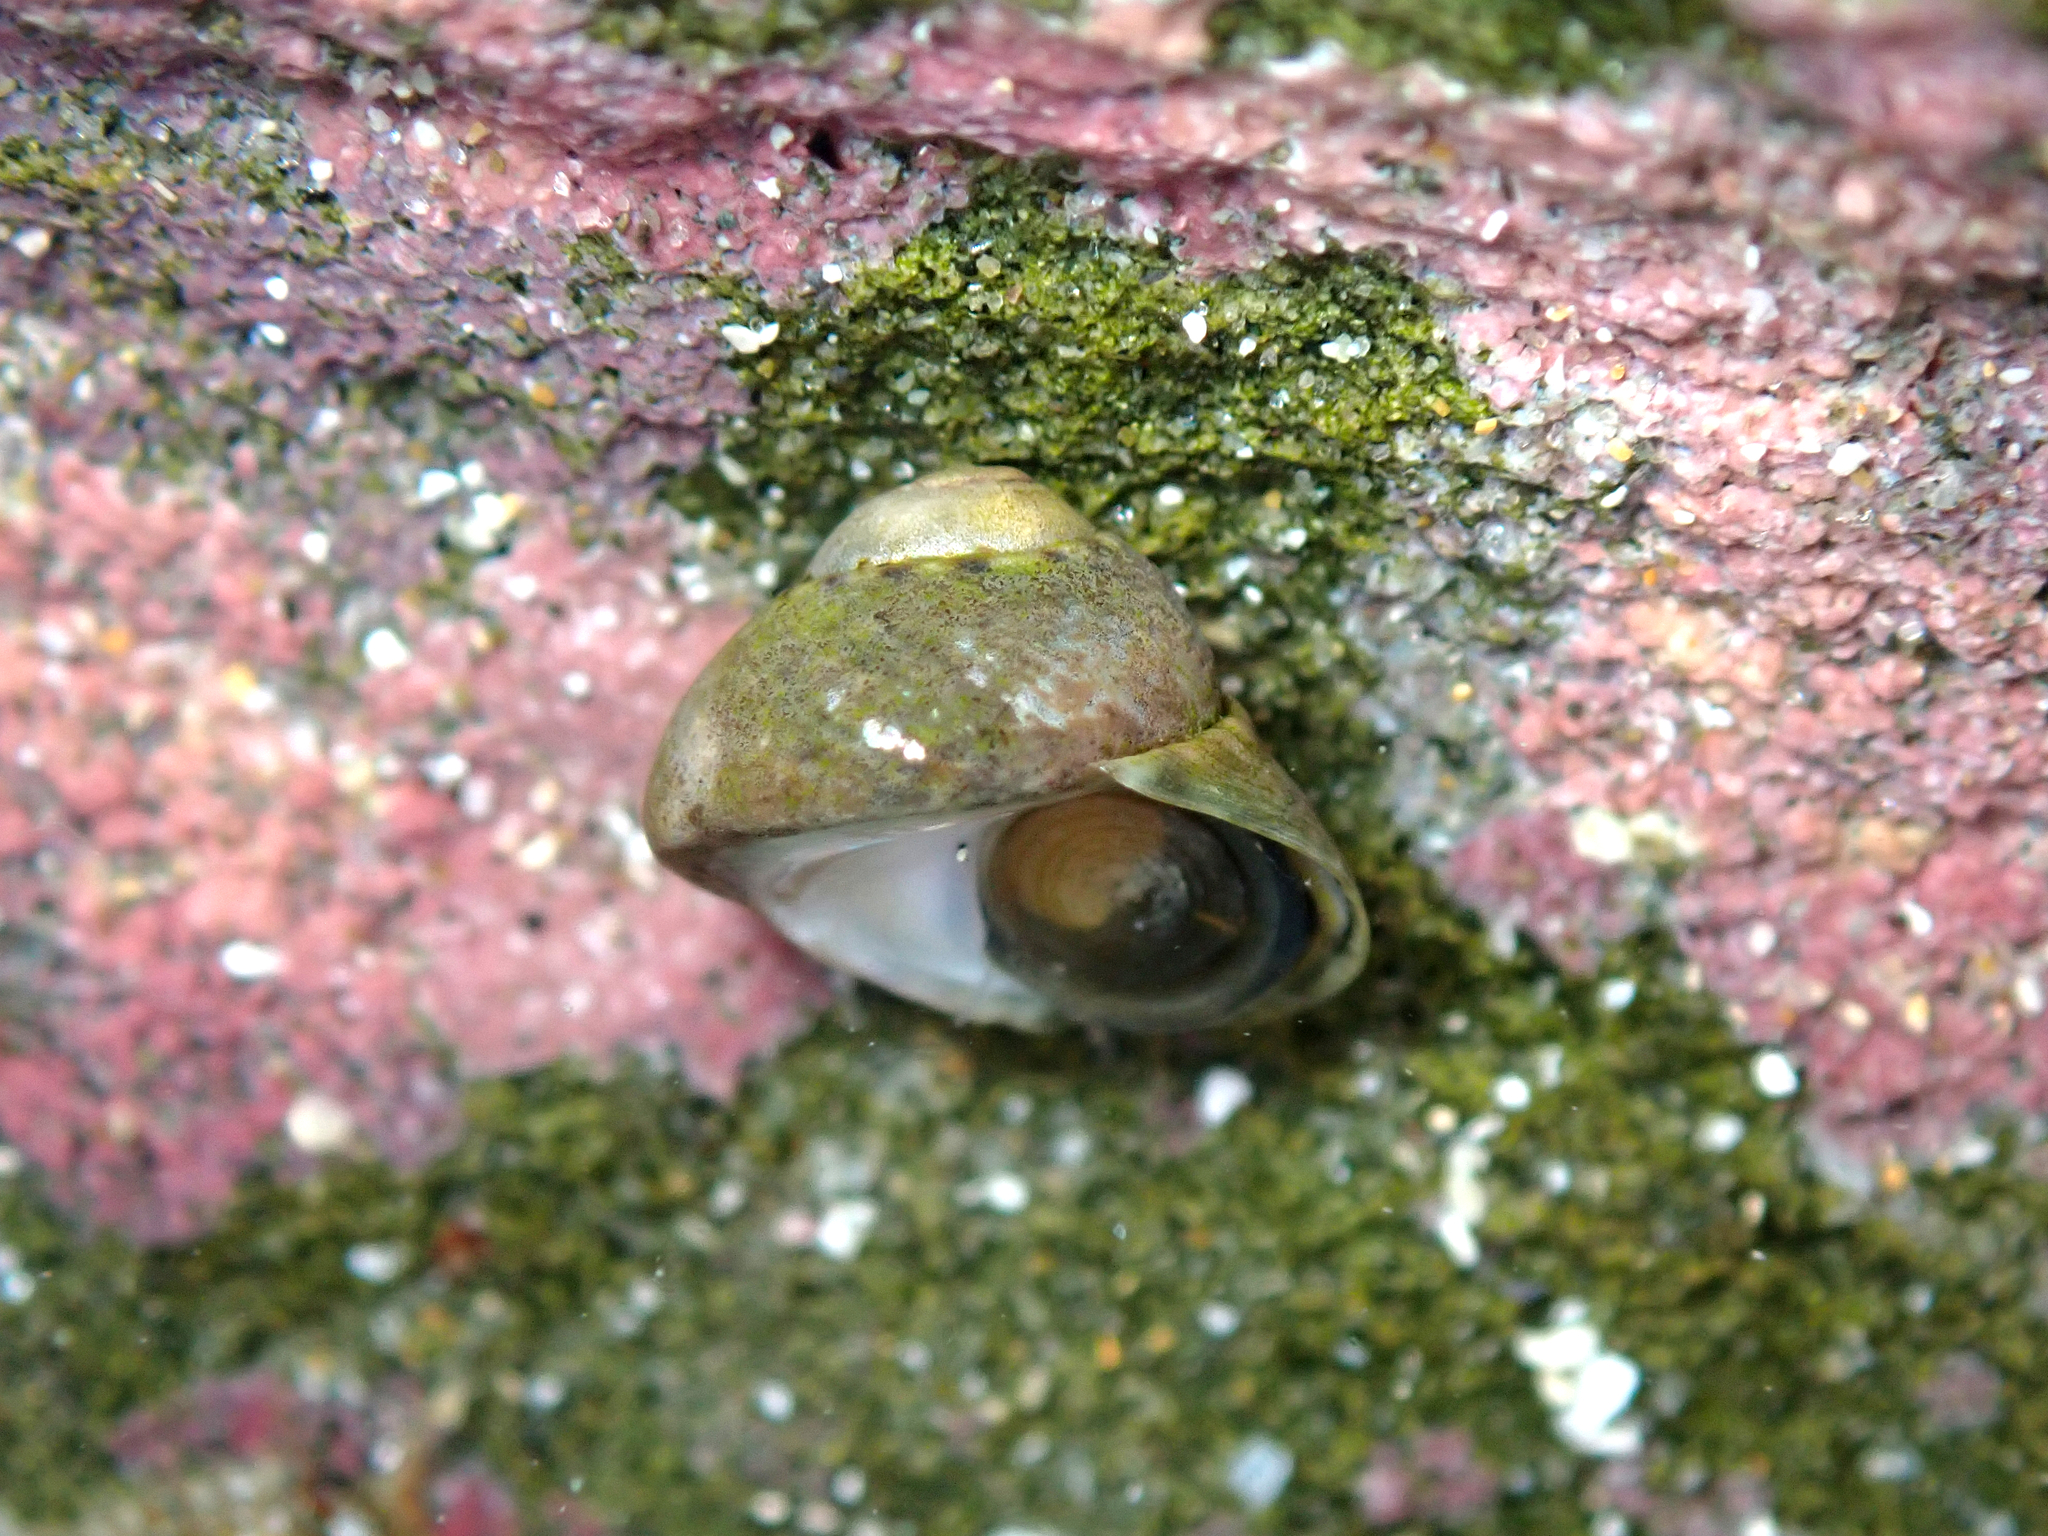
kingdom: Animalia
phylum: Mollusca
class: Gastropoda
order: Trochida
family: Trochidae
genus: Diloma
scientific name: Diloma coracinum
